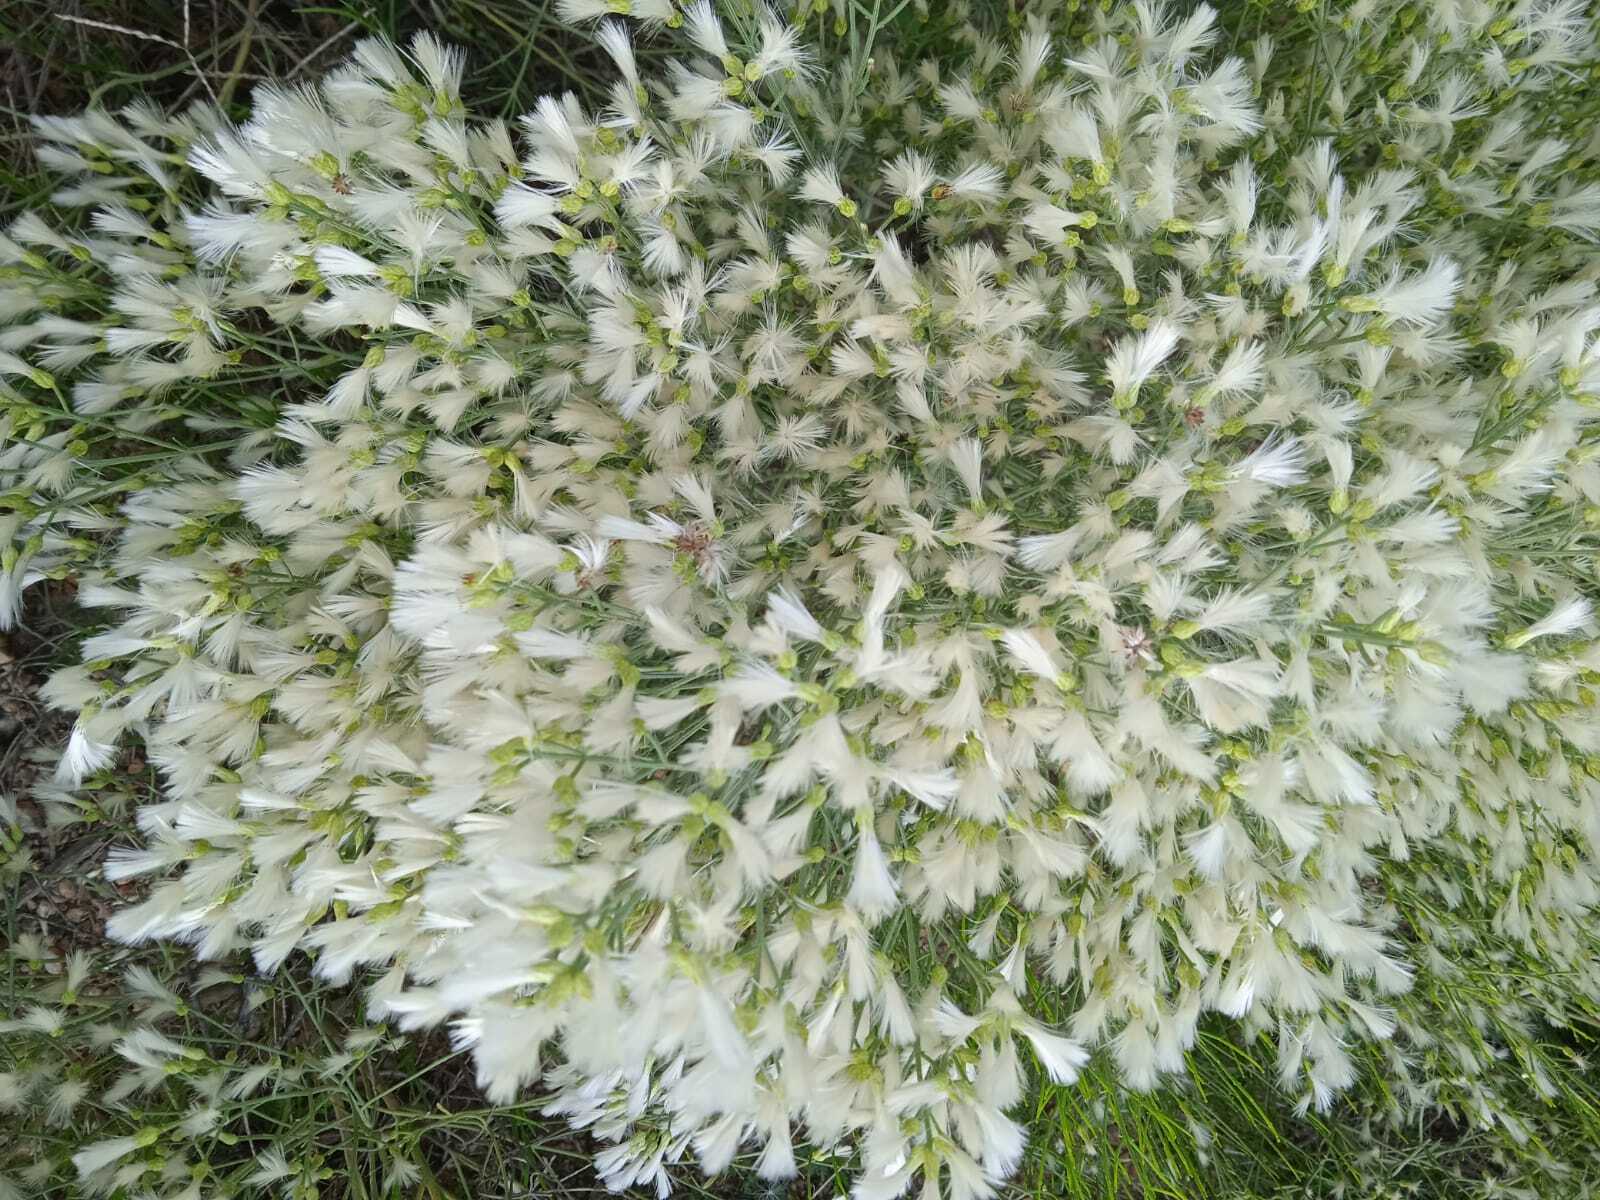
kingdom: Plantae
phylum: Tracheophyta
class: Magnoliopsida
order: Asterales
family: Asteraceae
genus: Baccharis
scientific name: Baccharis notosergila
